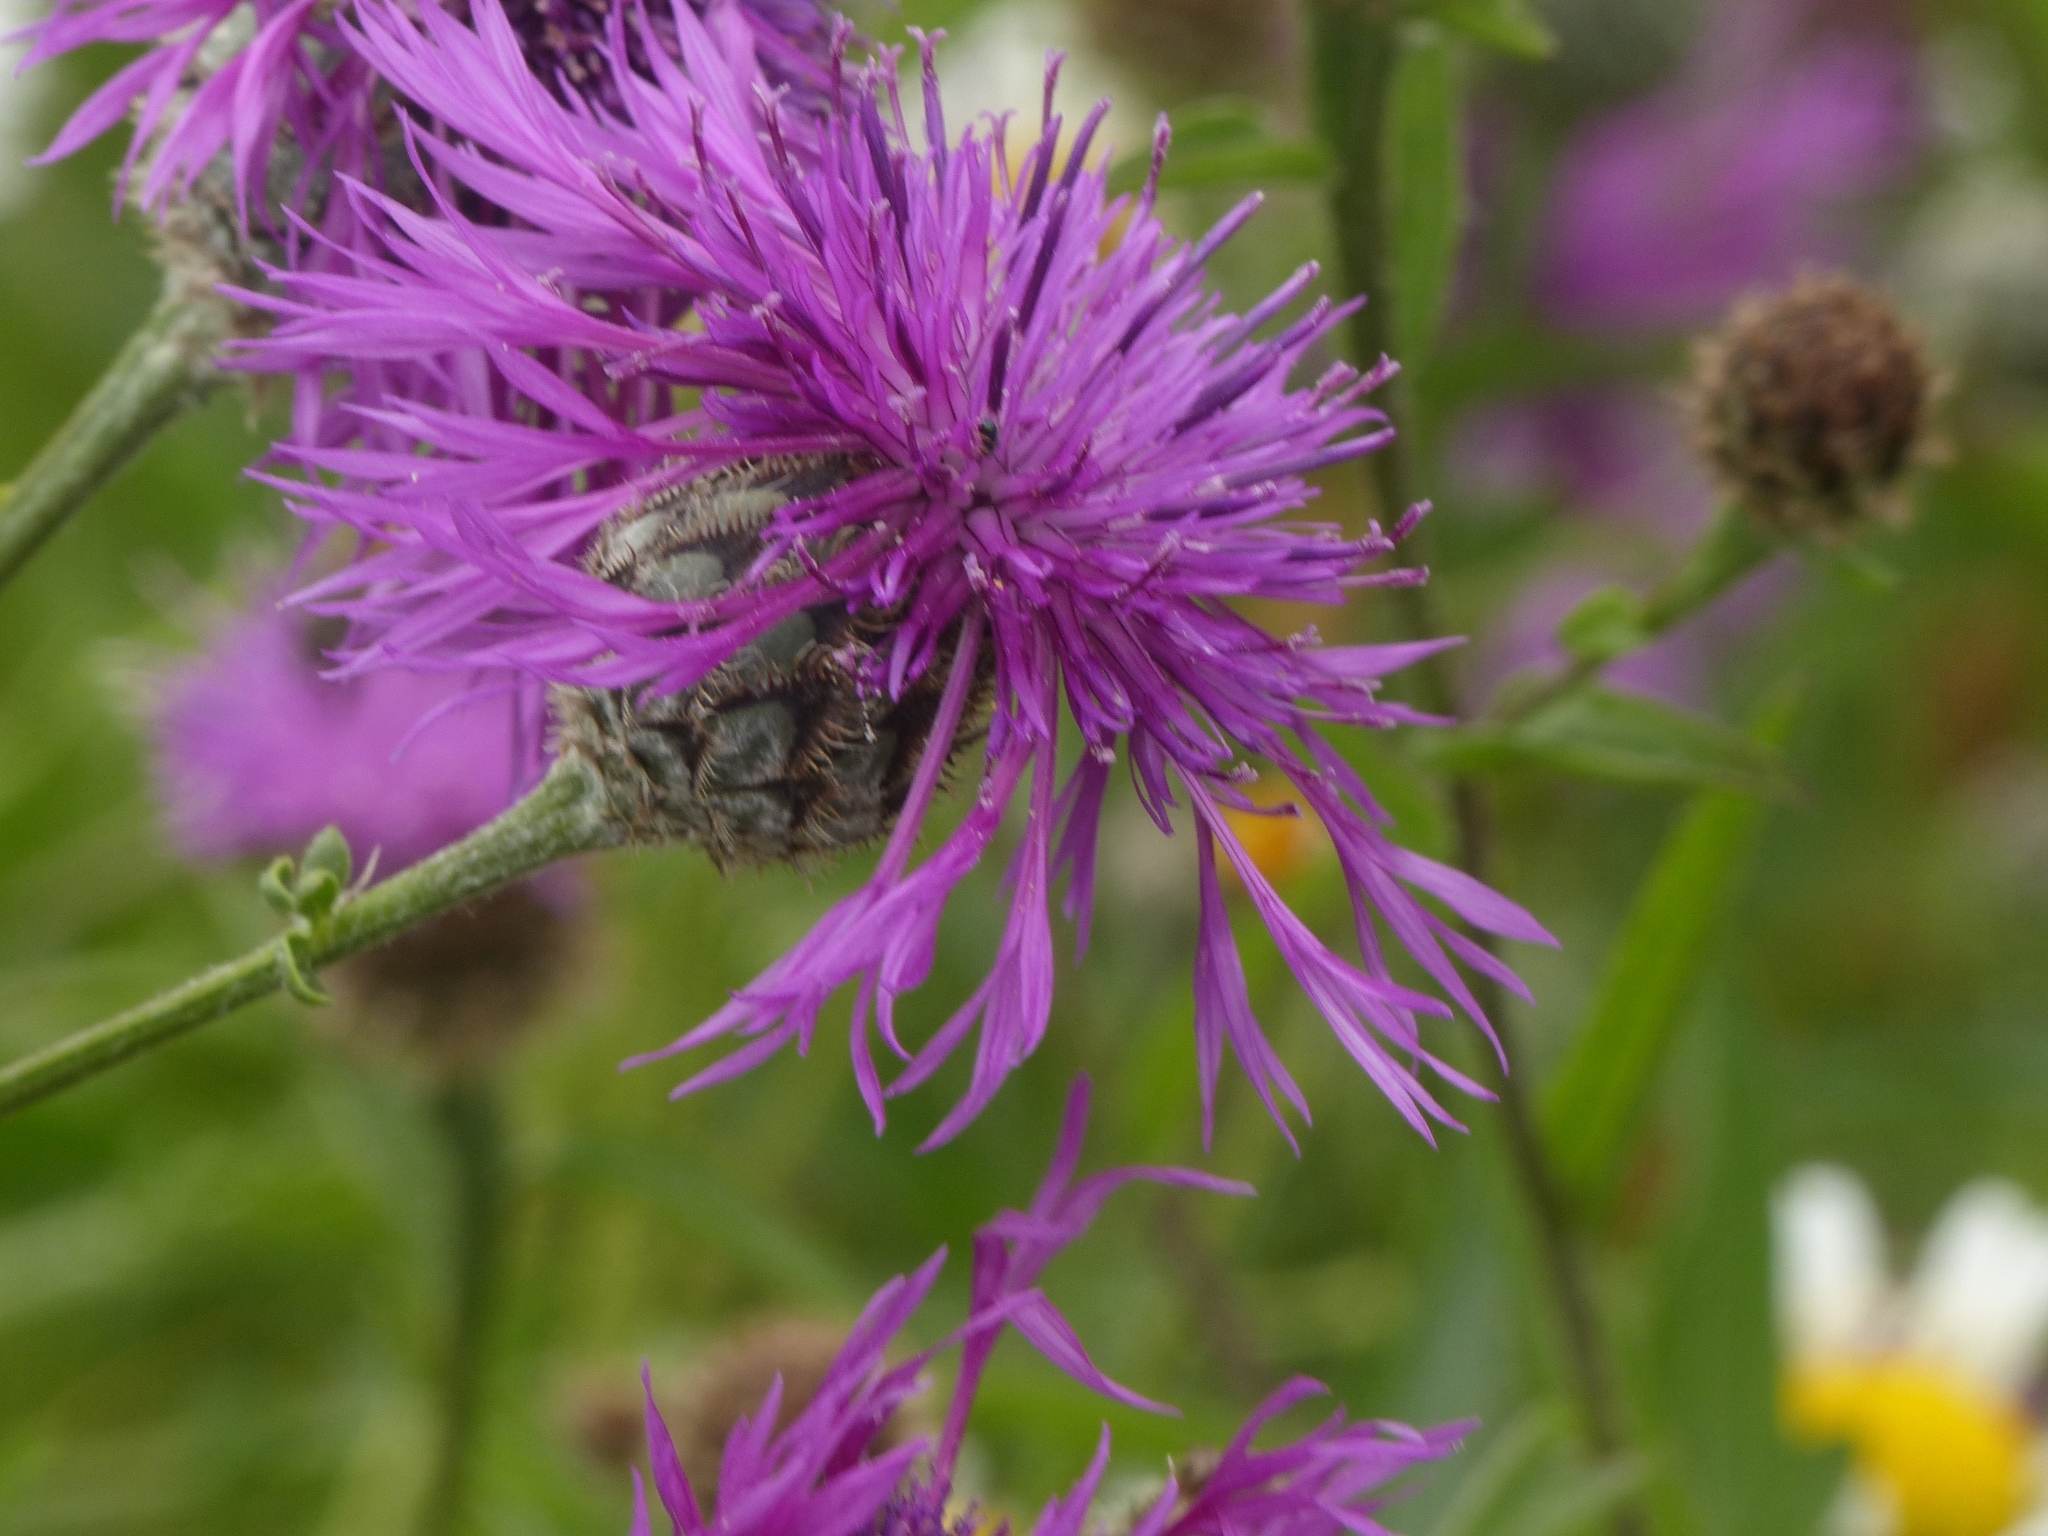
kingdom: Plantae
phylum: Tracheophyta
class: Magnoliopsida
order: Asterales
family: Asteraceae
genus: Centaurea
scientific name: Centaurea scabiosa
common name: Greater knapweed
